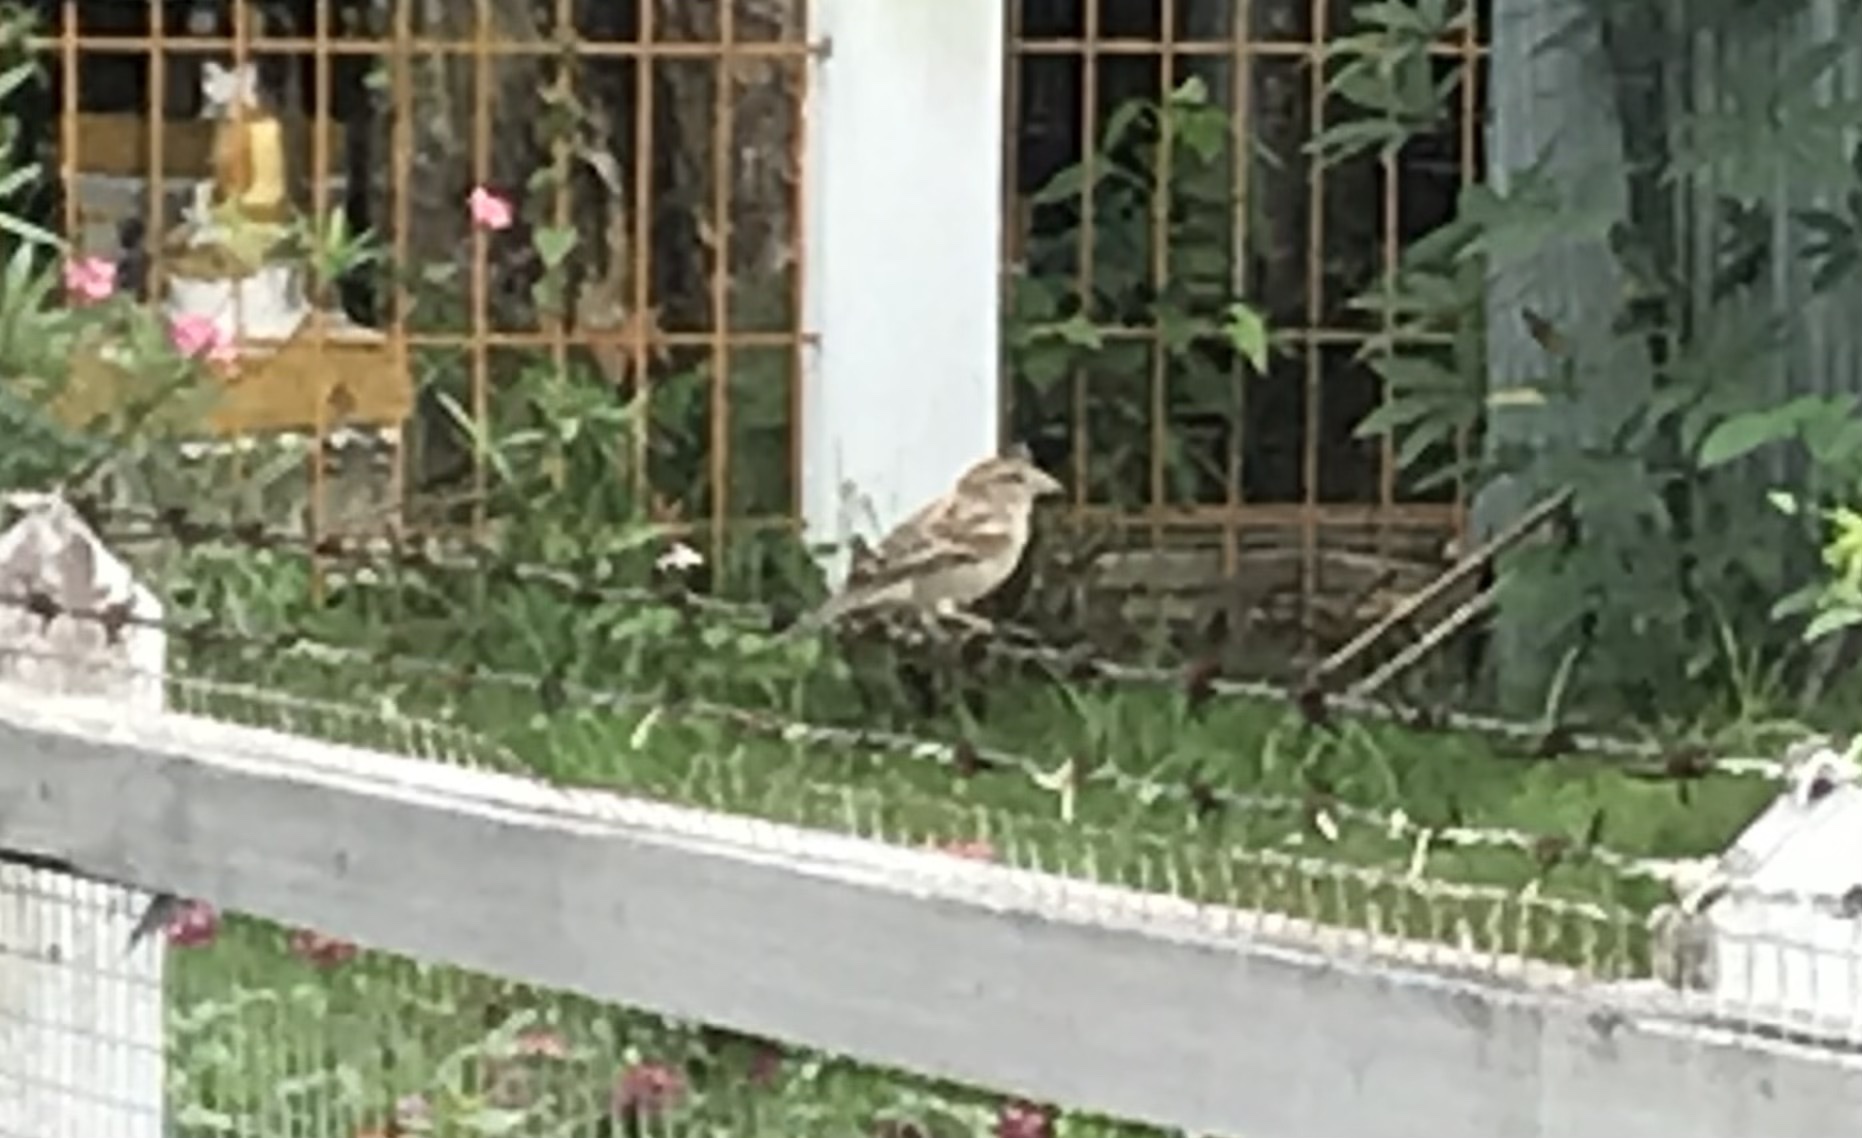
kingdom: Animalia
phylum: Chordata
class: Aves
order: Passeriformes
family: Passeridae
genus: Passer
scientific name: Passer domesticus
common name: House sparrow
